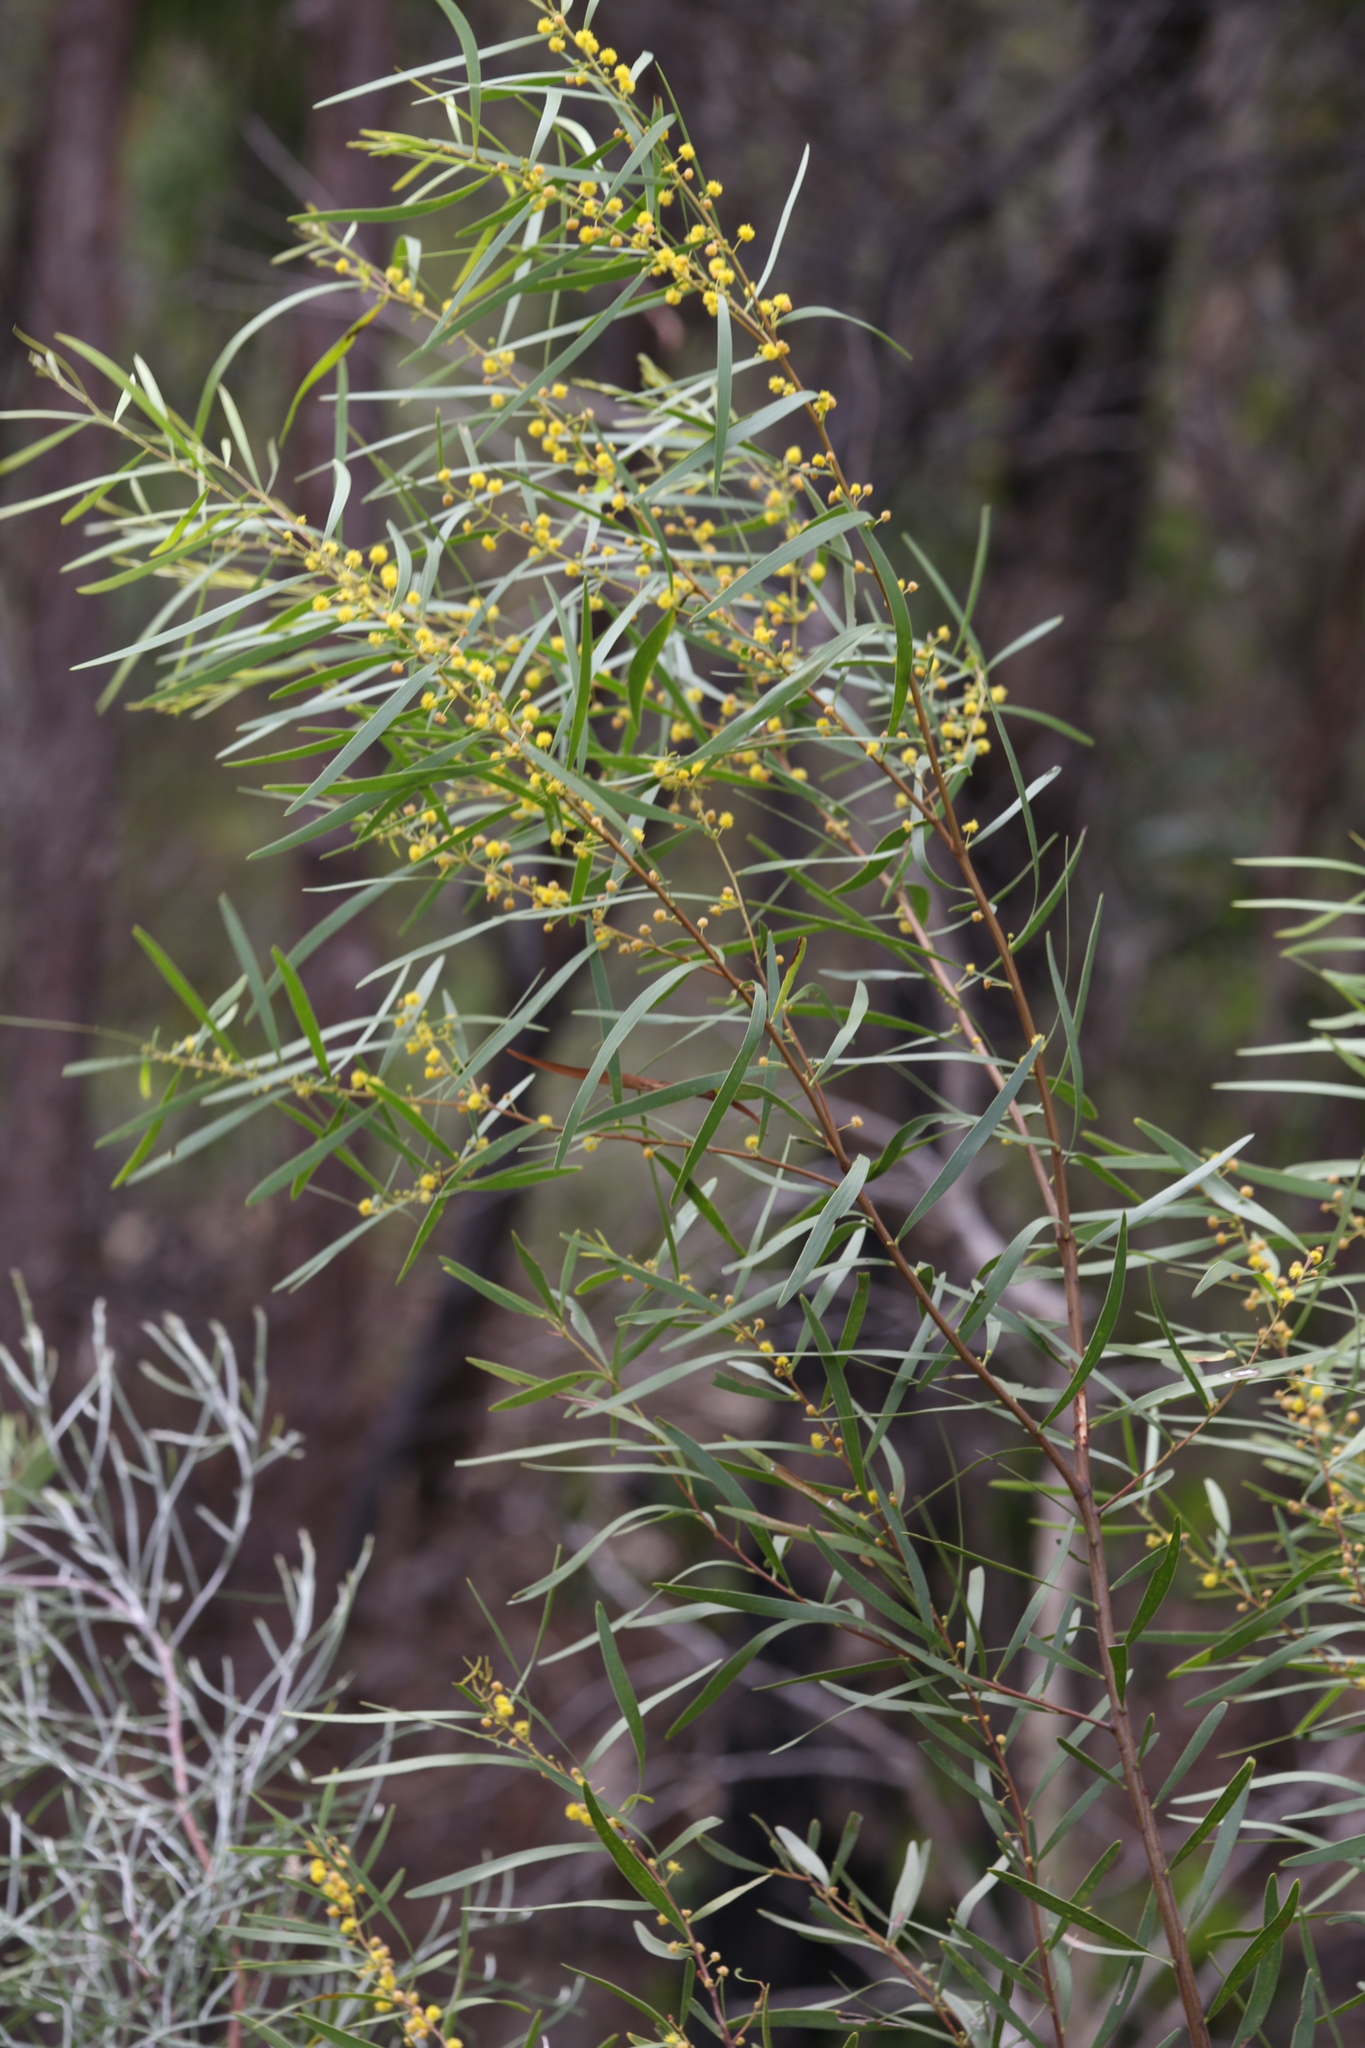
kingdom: Plantae
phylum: Tracheophyta
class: Magnoliopsida
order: Fabales
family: Fabaceae
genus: Acacia
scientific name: Acacia simsii
